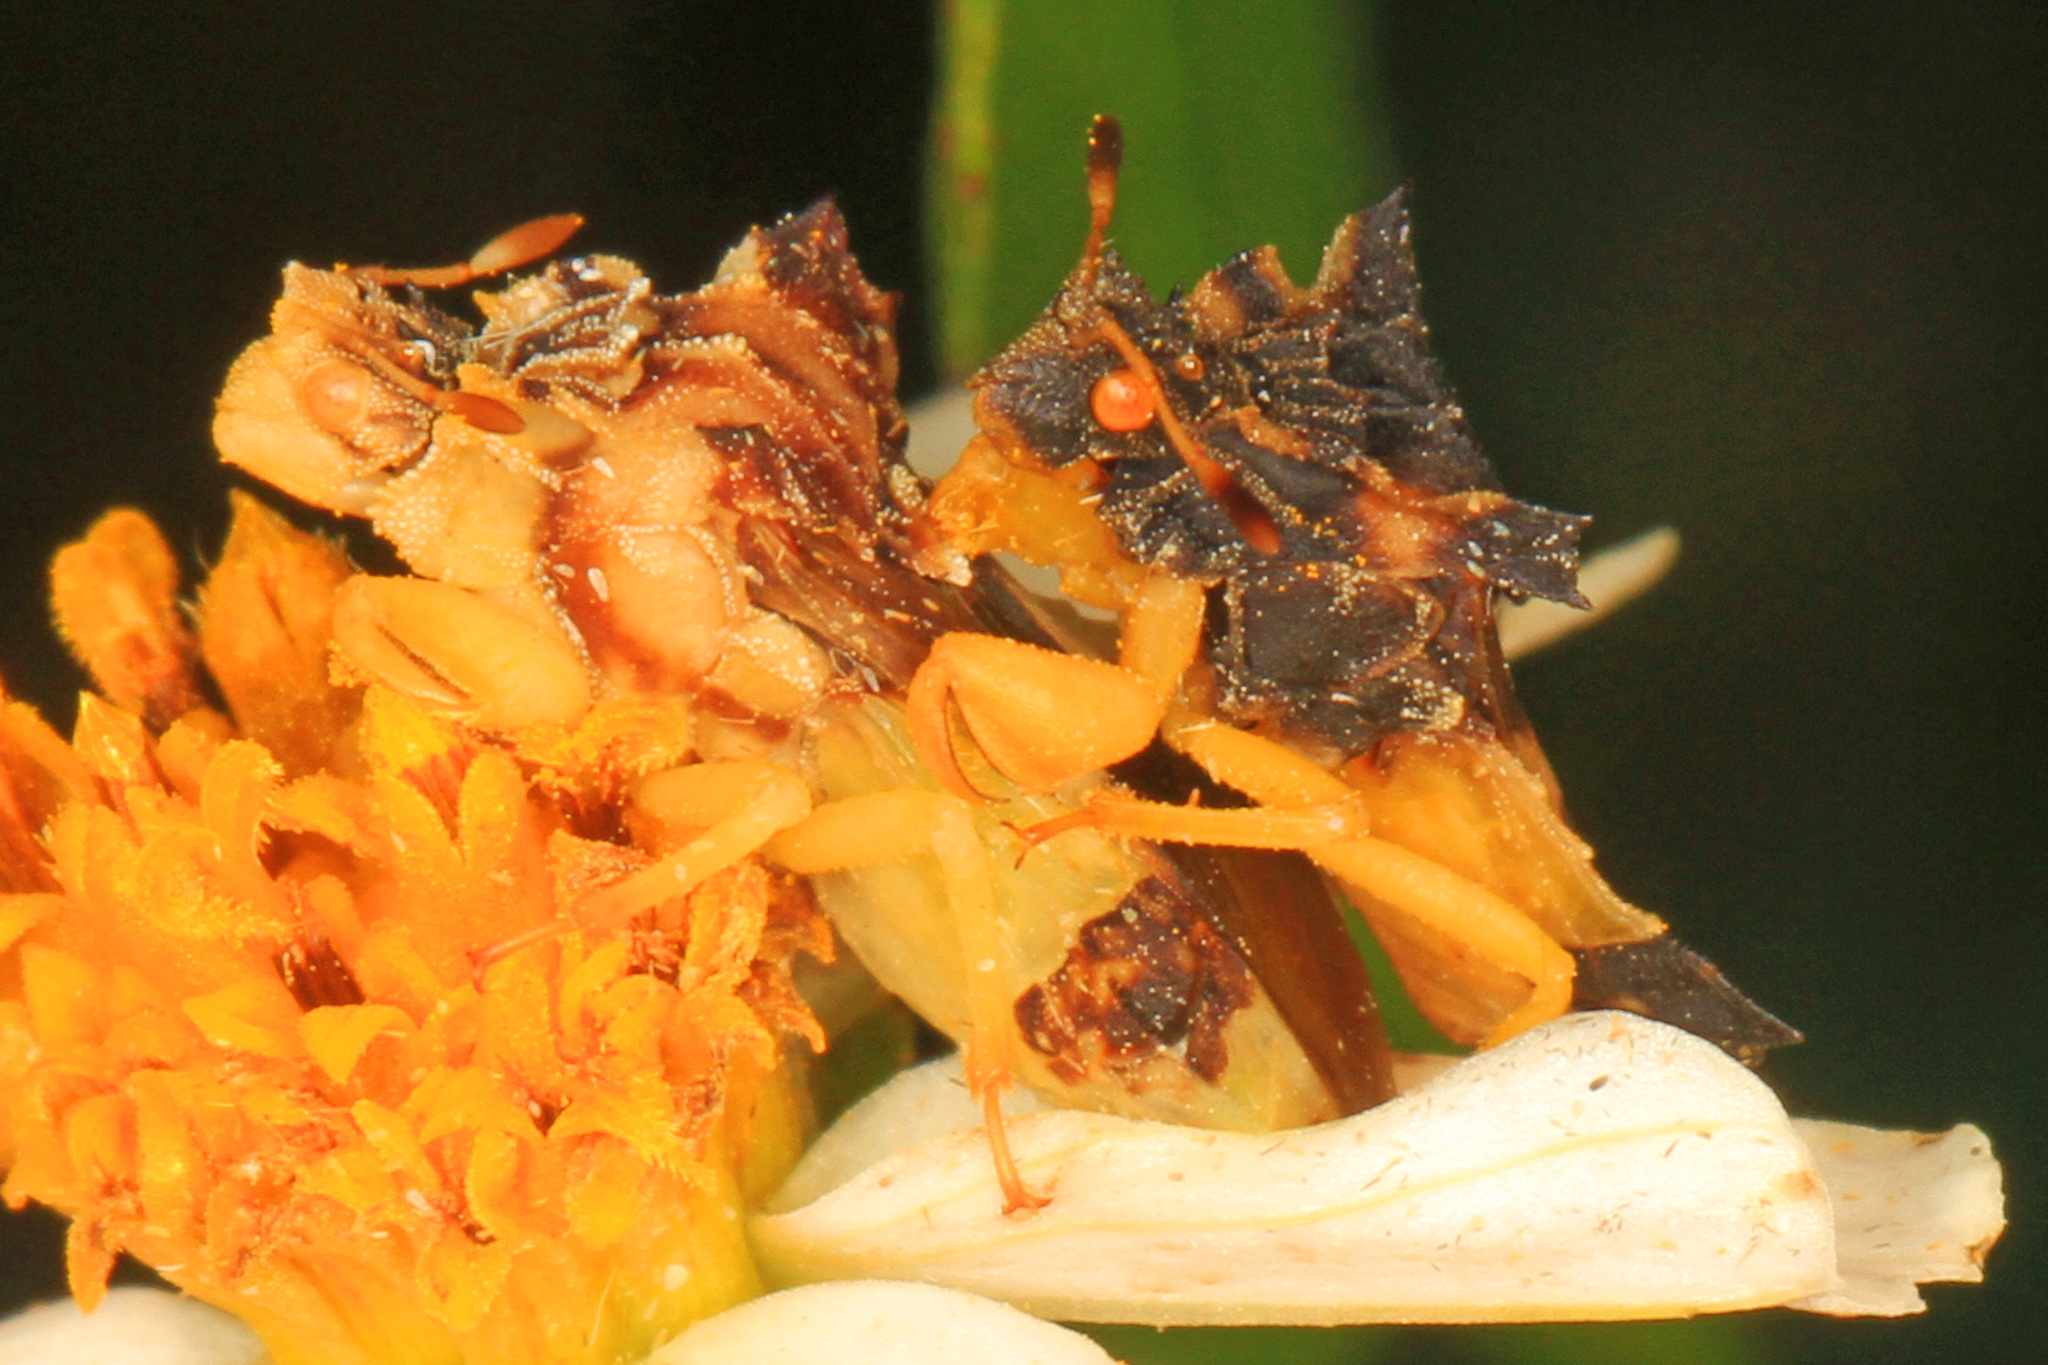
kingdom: Animalia
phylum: Arthropoda
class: Insecta
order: Hemiptera
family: Reduviidae
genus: Phymata
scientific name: Phymata
